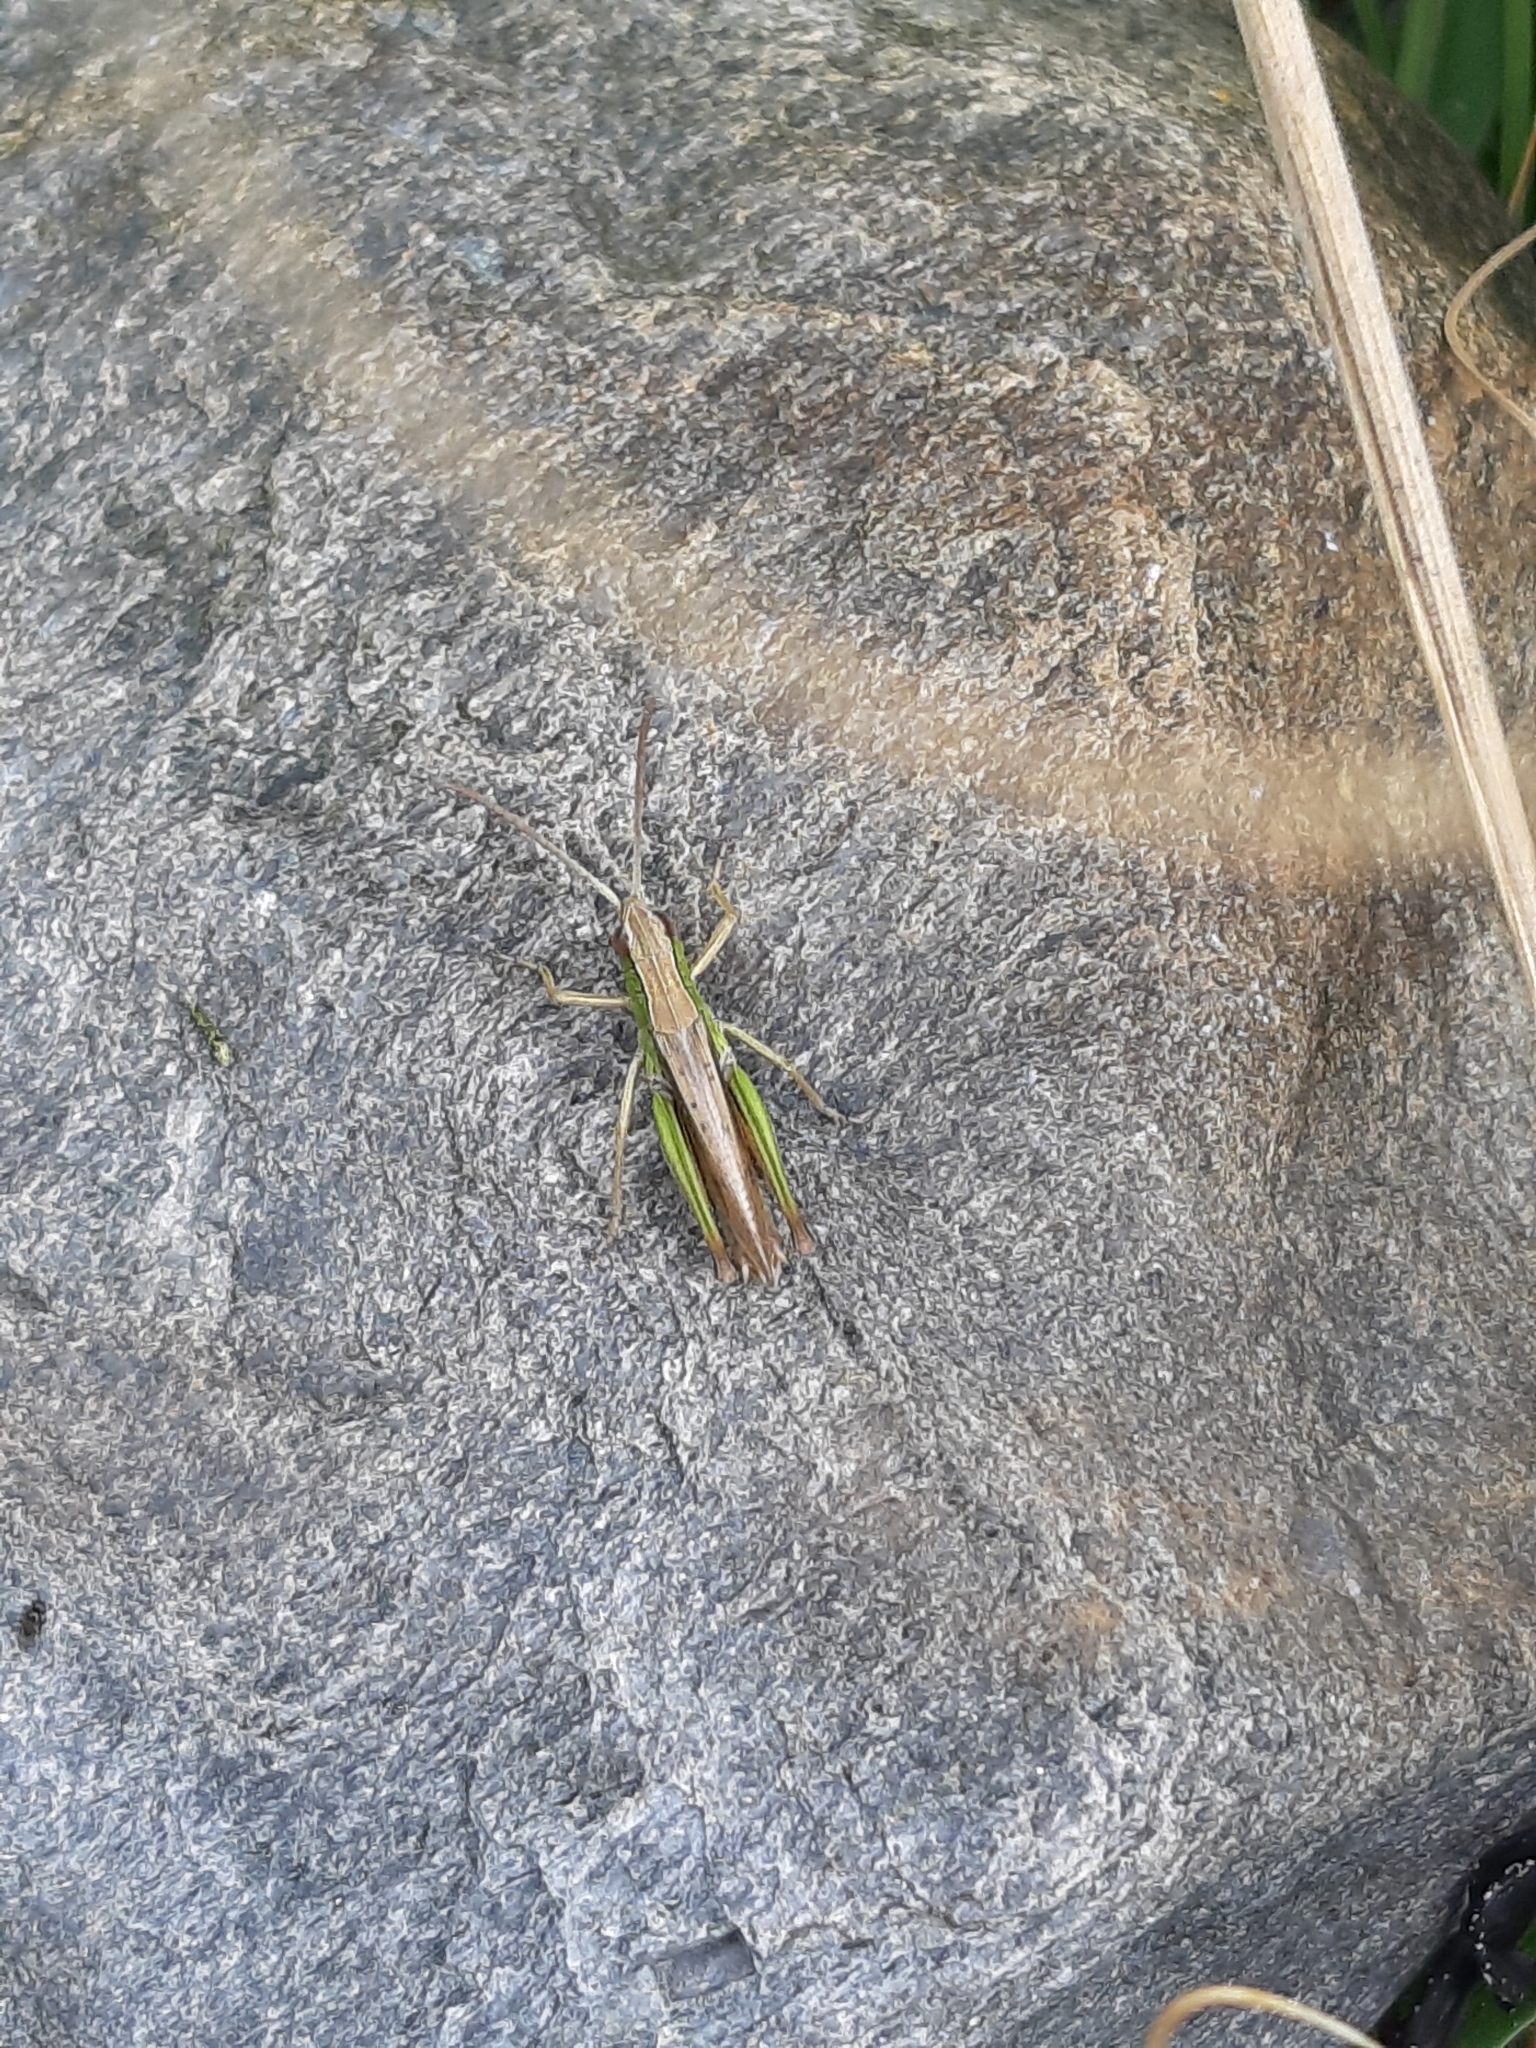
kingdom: Animalia
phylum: Arthropoda
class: Insecta
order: Orthoptera
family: Acrididae
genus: Pseudochorthippus
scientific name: Pseudochorthippus parallelus
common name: Meadow grasshopper
